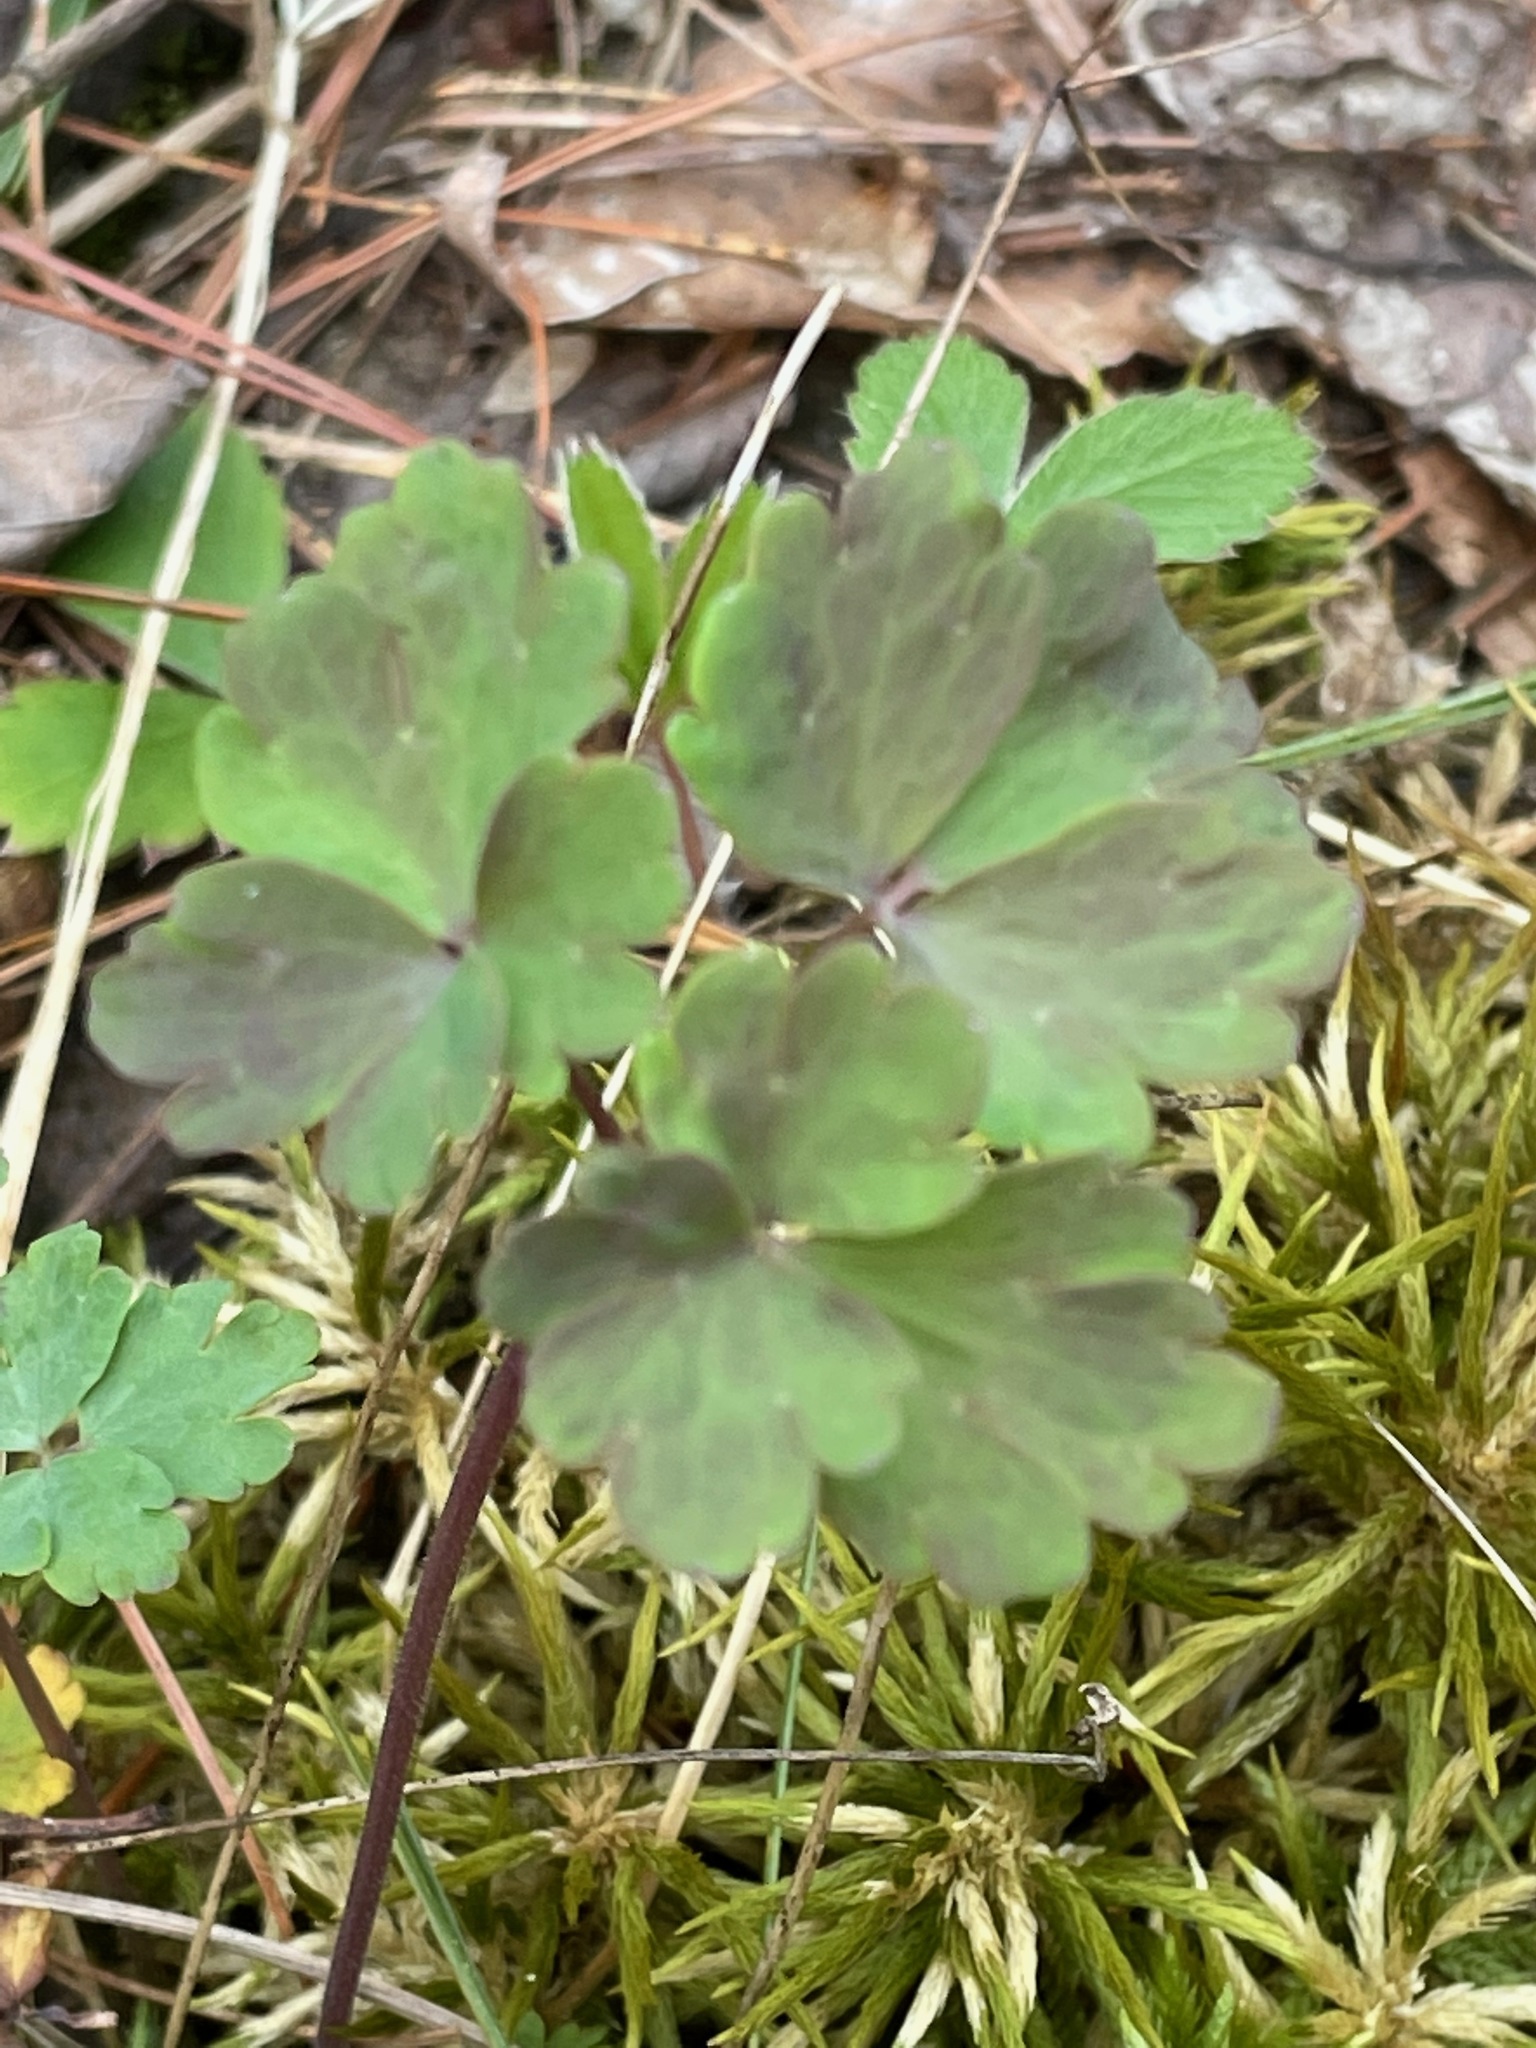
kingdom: Plantae
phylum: Tracheophyta
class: Magnoliopsida
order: Ranunculales
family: Ranunculaceae
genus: Aquilegia
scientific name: Aquilegia canadensis
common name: American columbine
